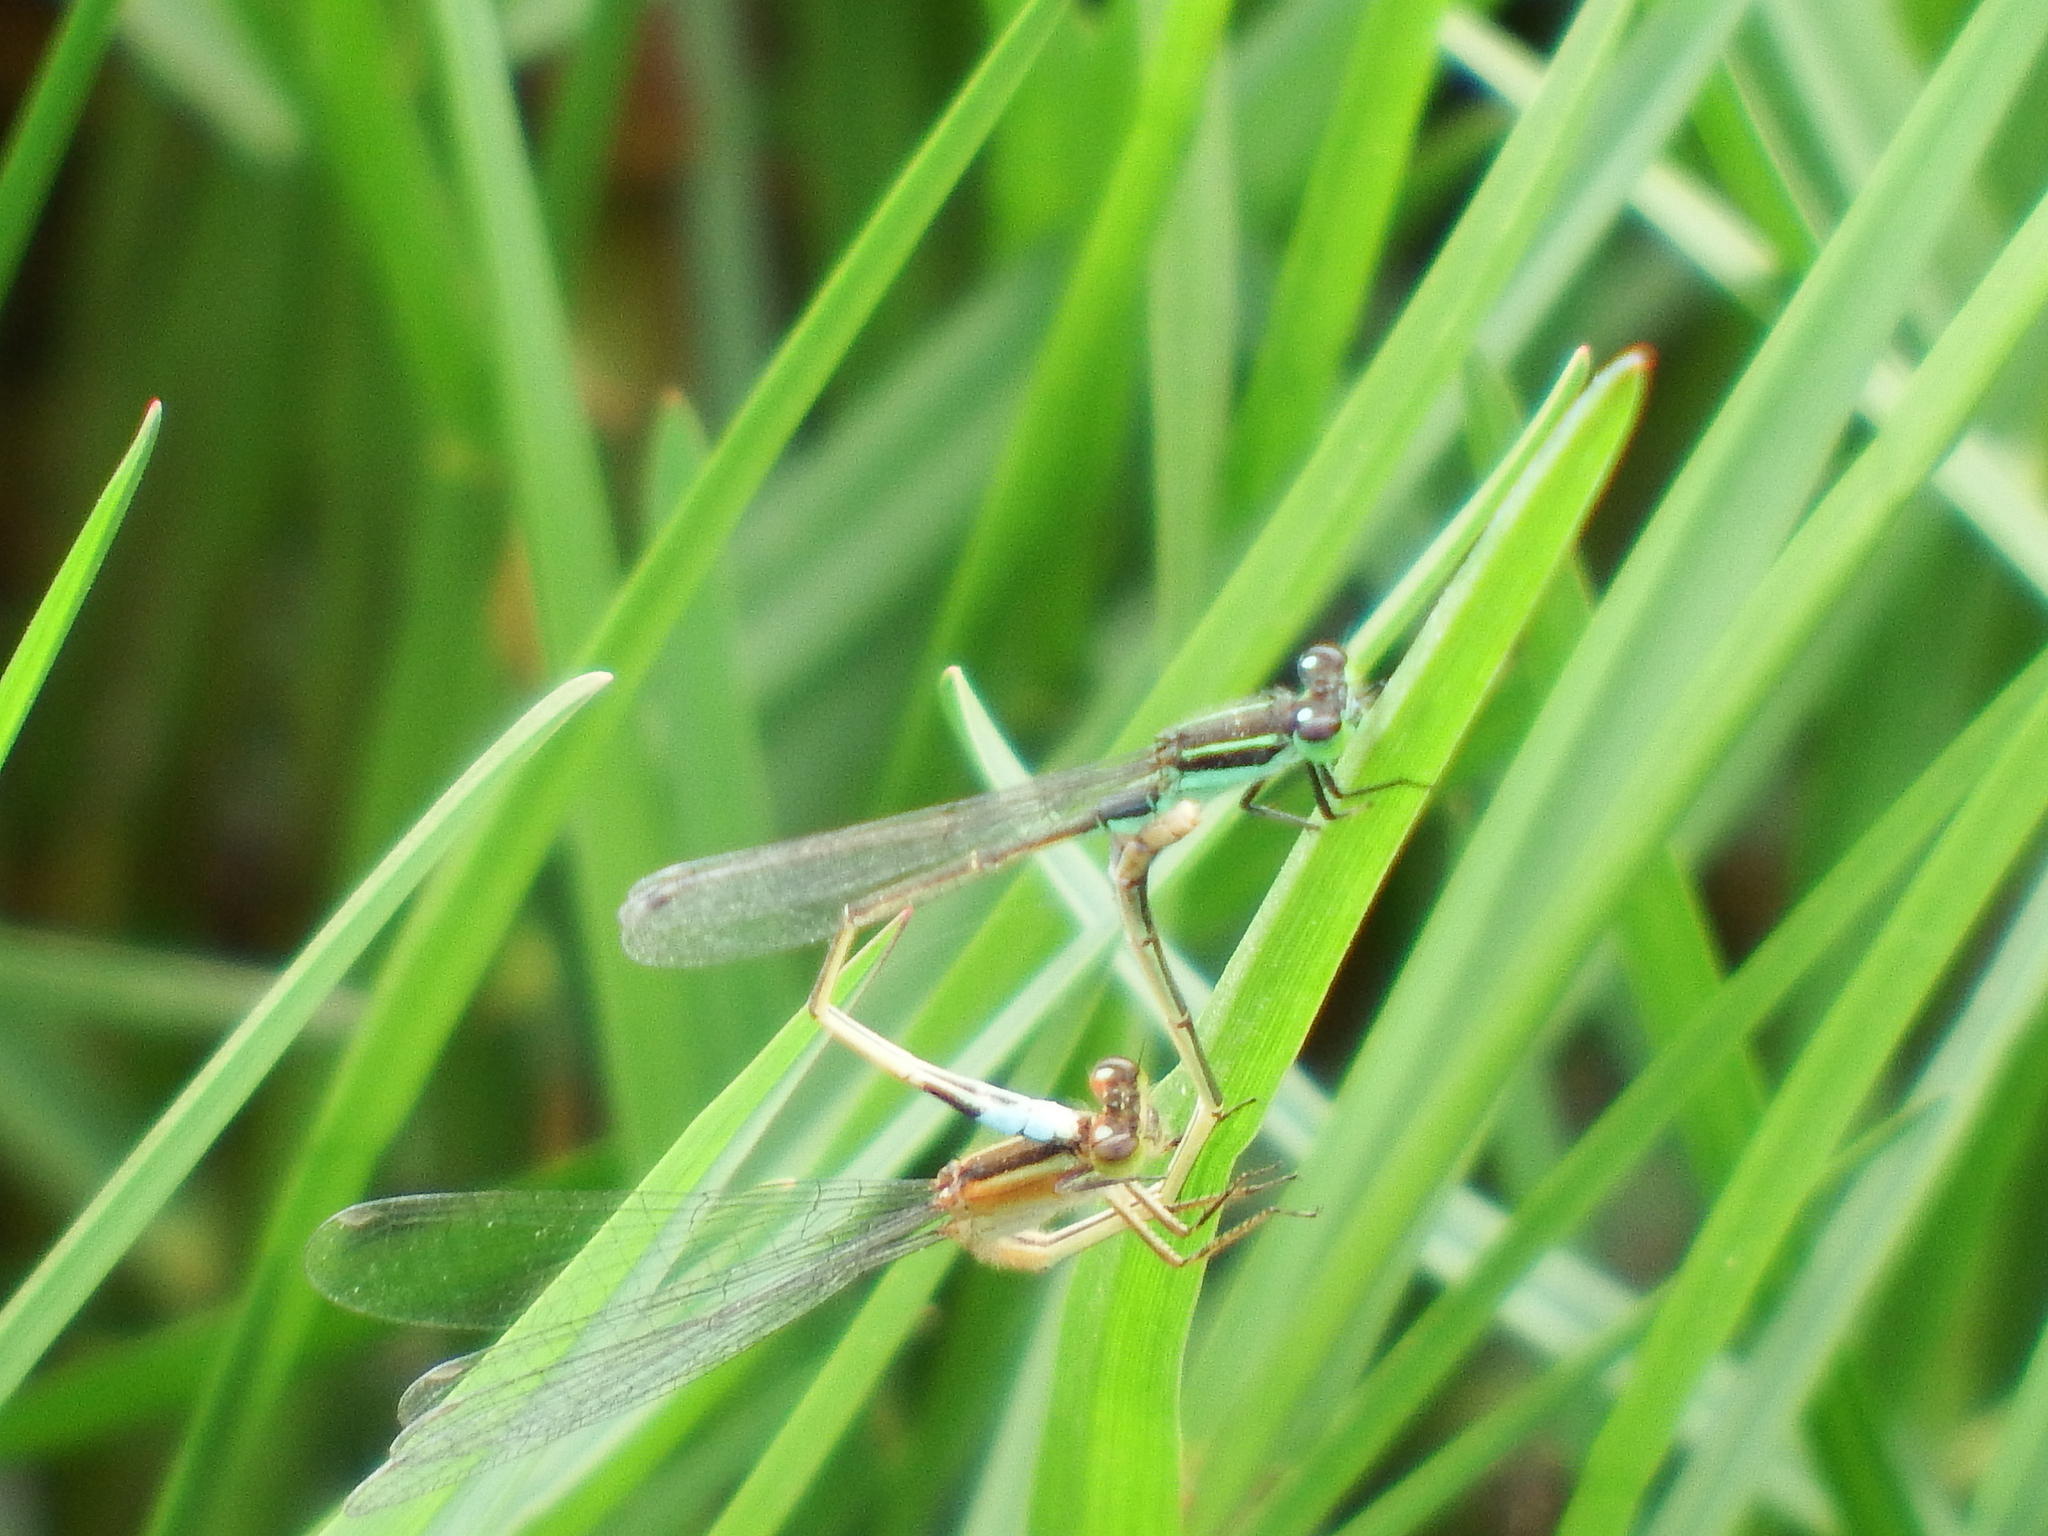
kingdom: Animalia
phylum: Arthropoda
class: Insecta
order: Odonata
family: Coenagrionidae
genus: Ischnura
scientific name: Ischnura ramburii
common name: Rambur's forktail
